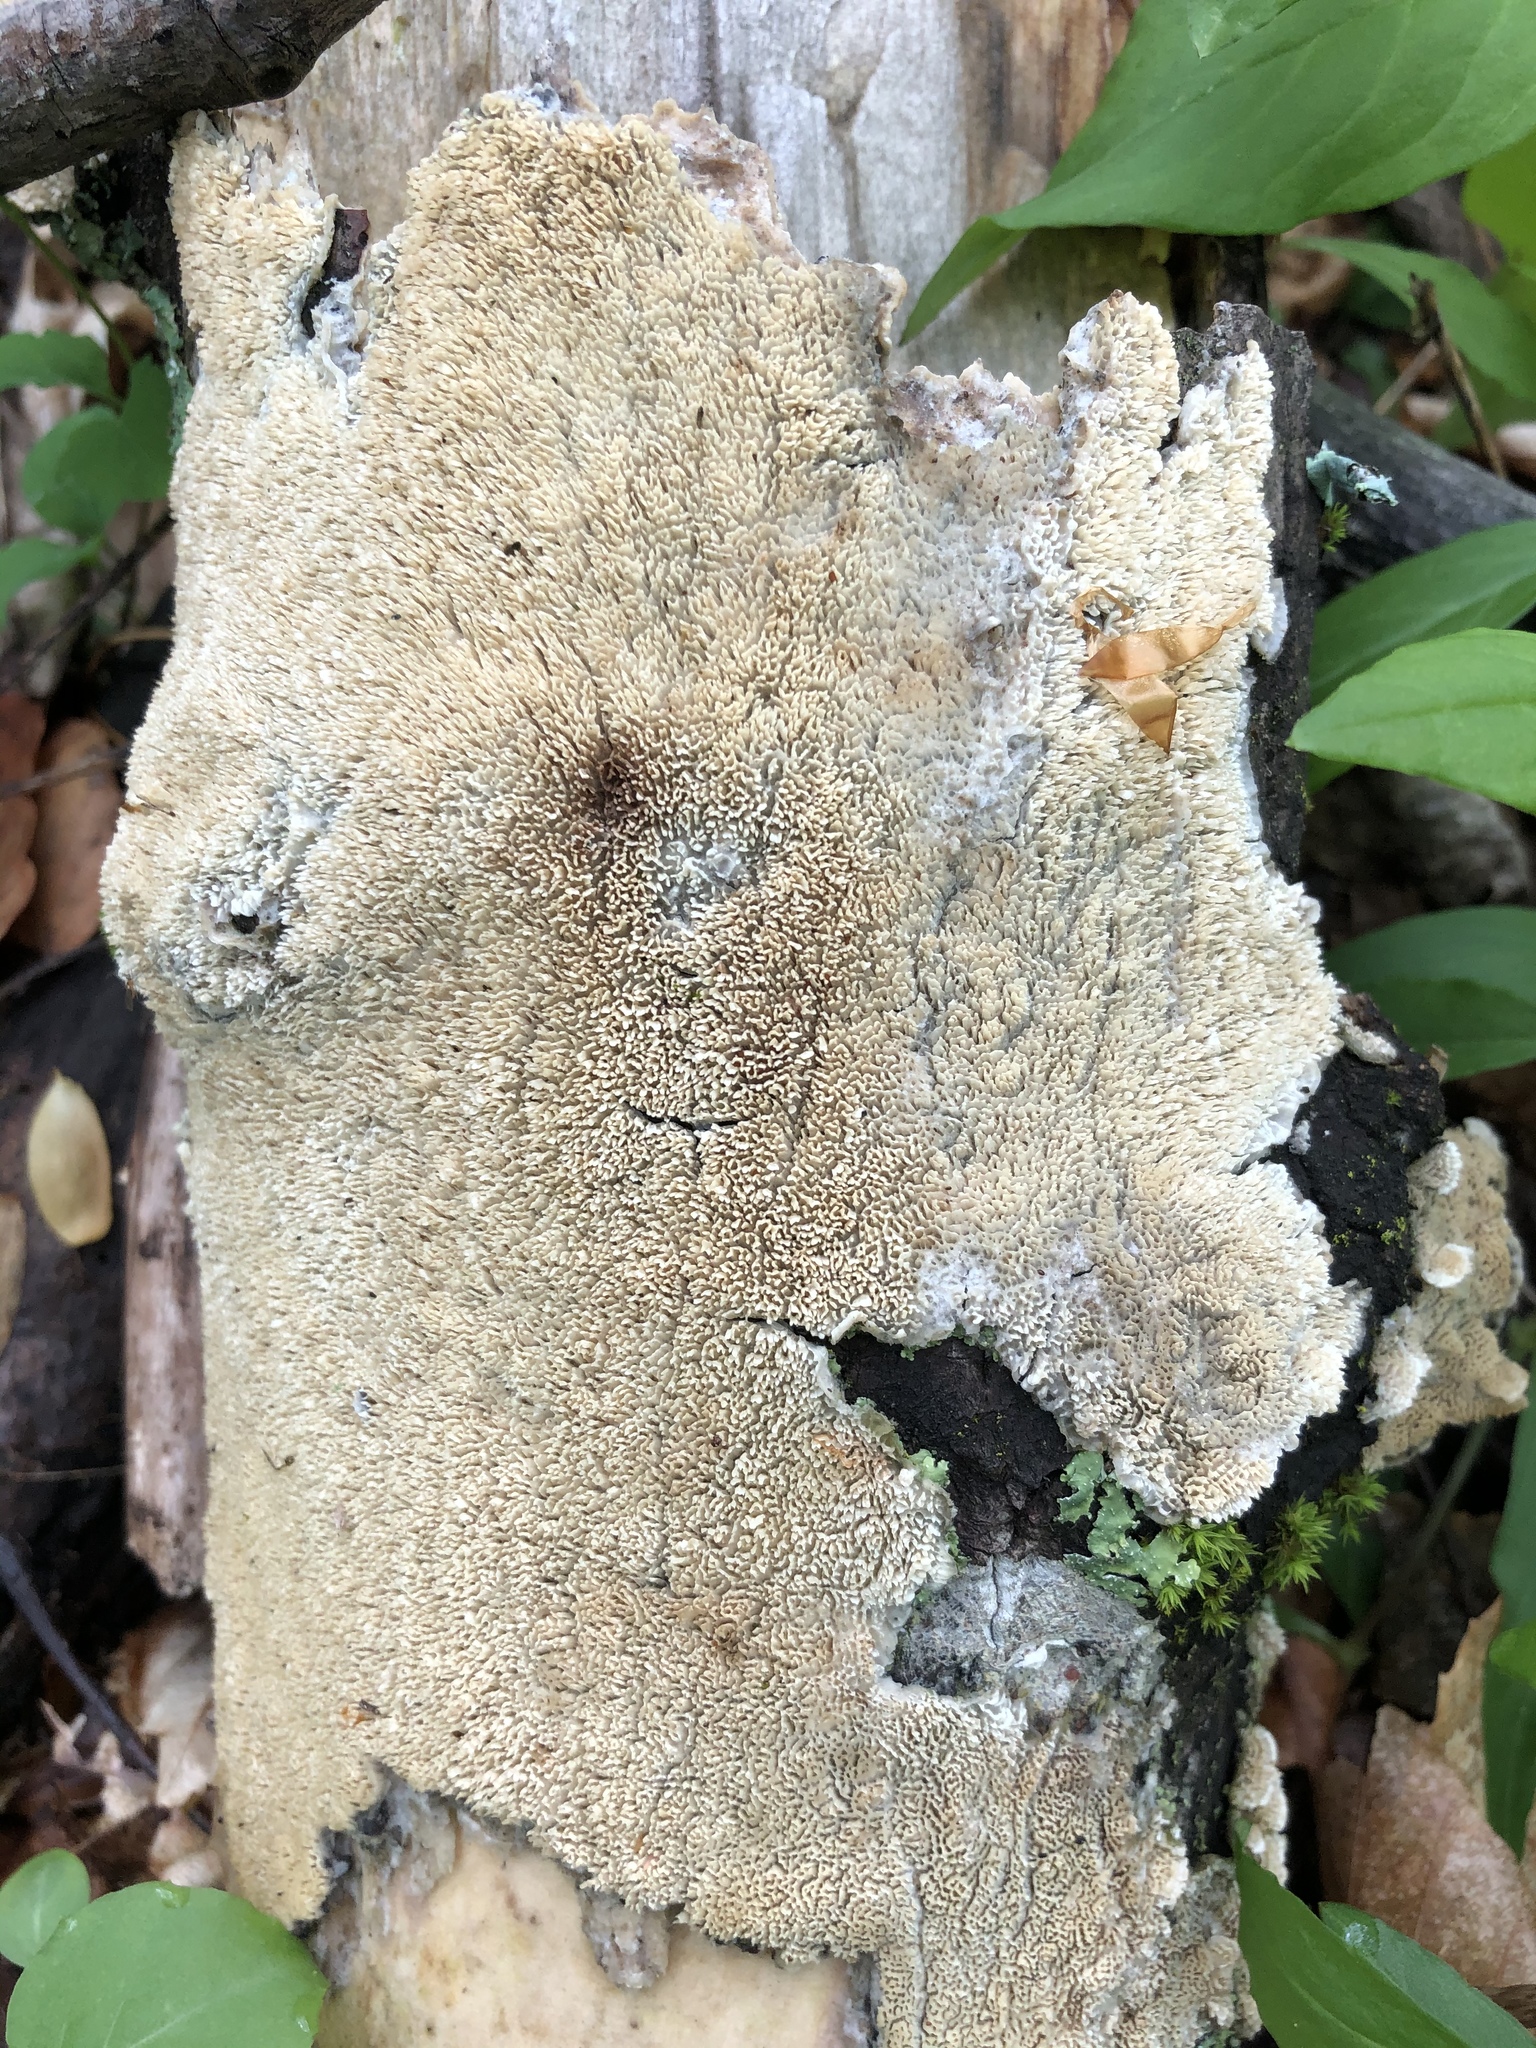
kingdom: Fungi
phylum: Basidiomycota
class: Agaricomycetes
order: Polyporales
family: Irpicaceae
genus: Irpex
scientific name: Irpex lacteus
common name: Milk-white toothed polypore
